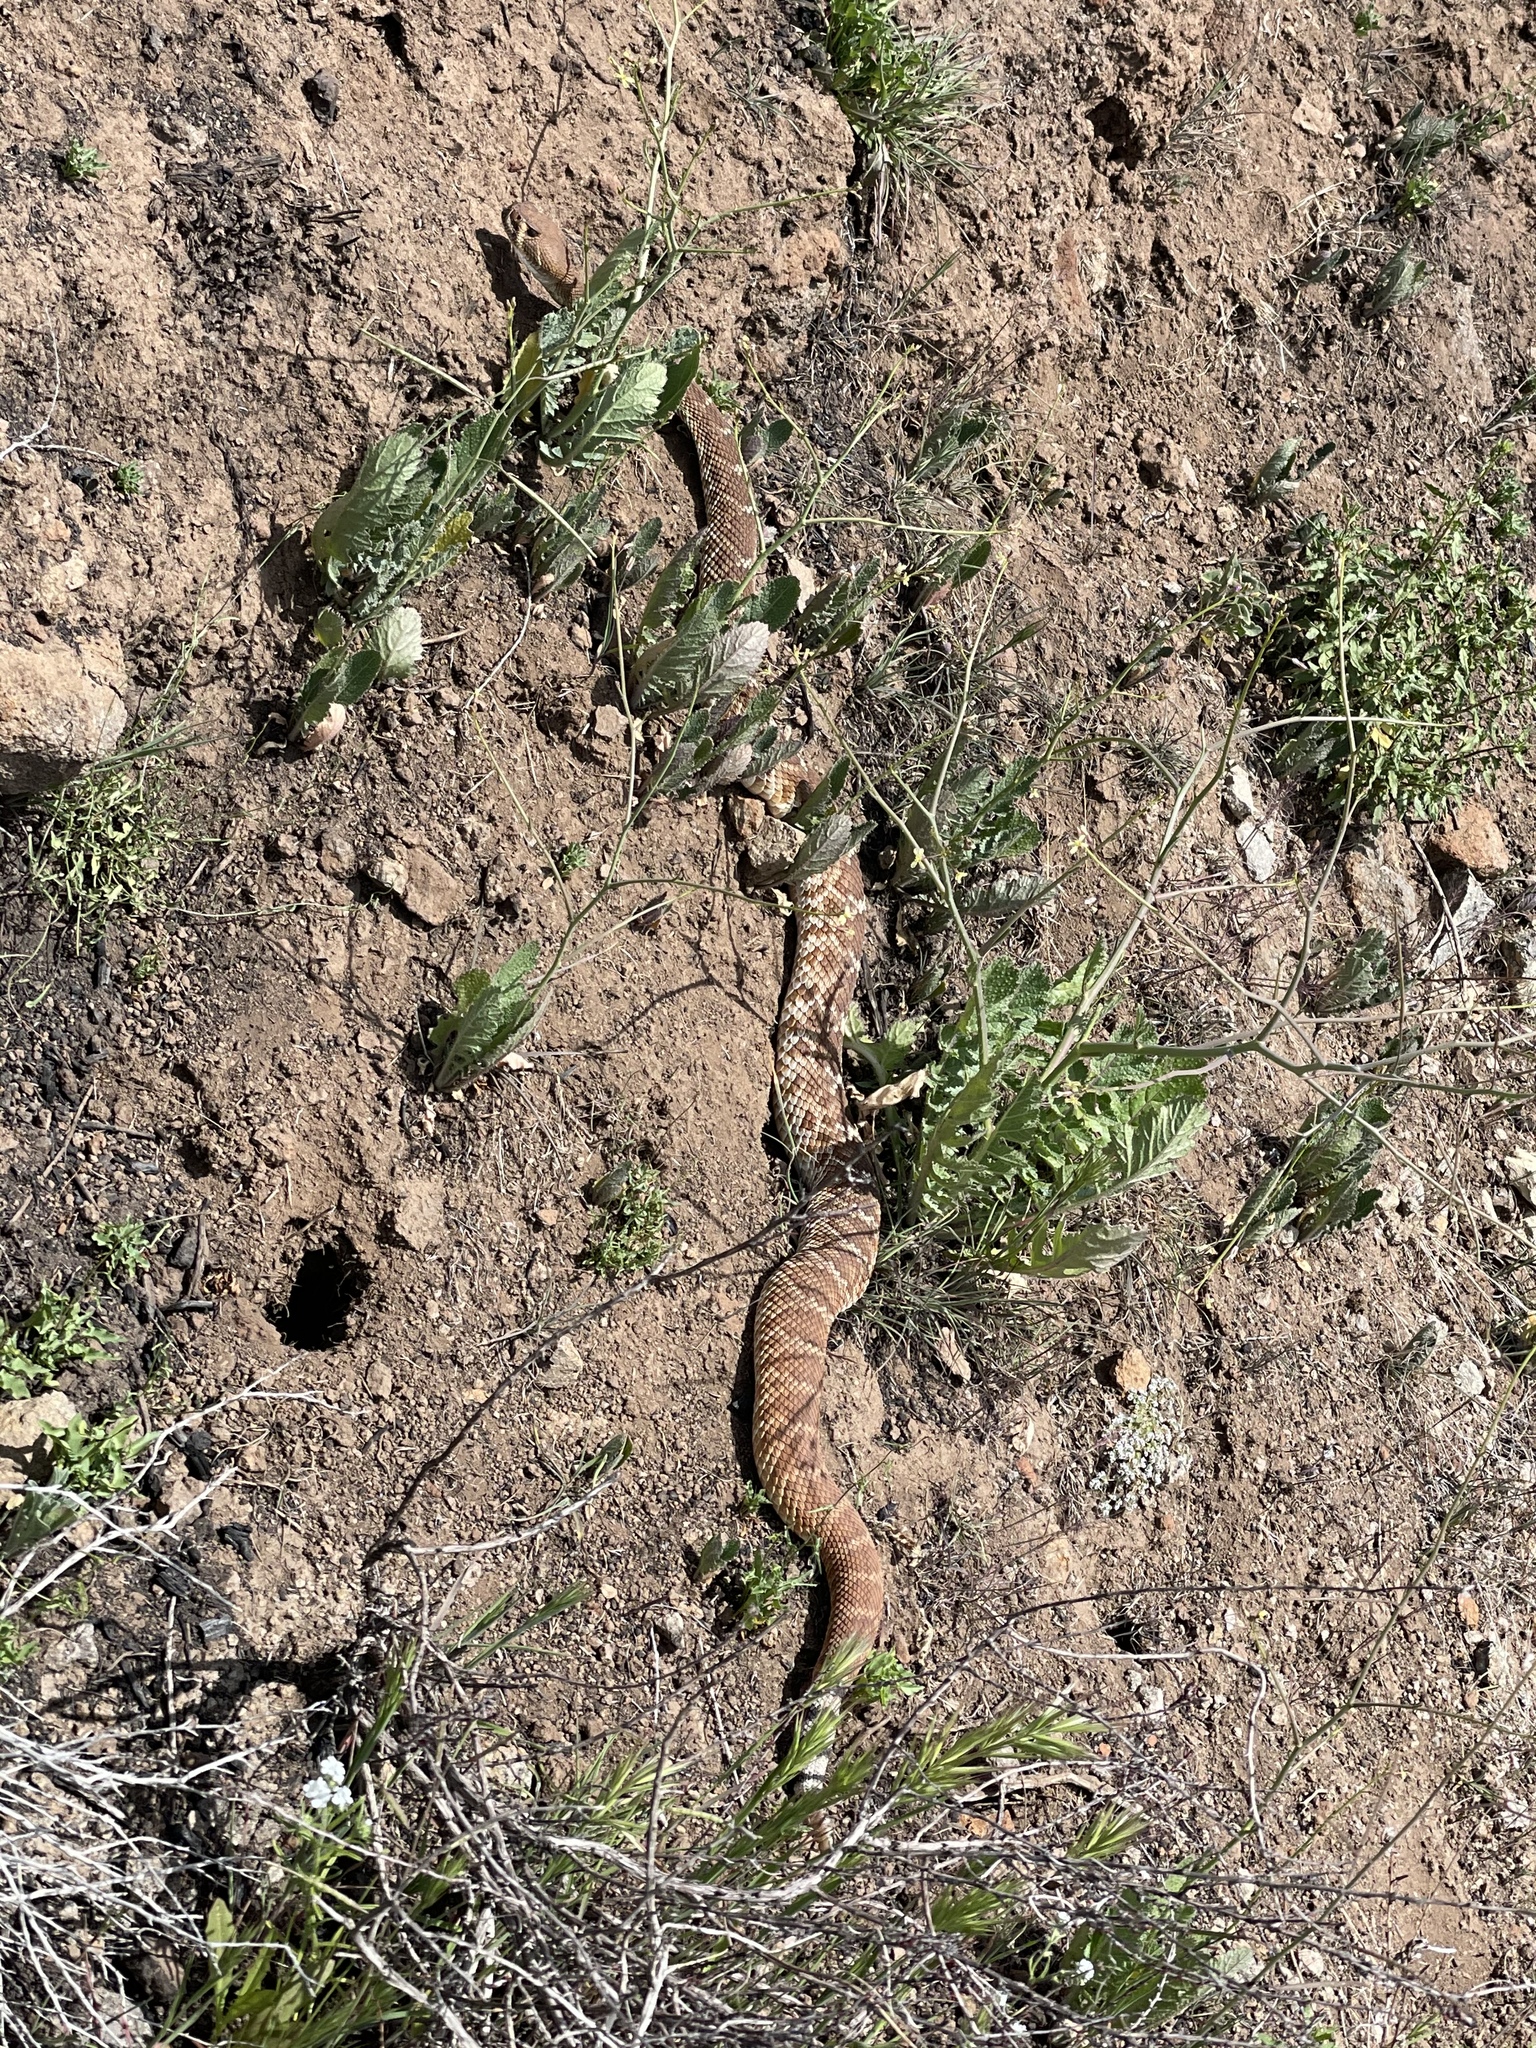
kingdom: Animalia
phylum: Chordata
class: Squamata
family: Viperidae
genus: Crotalus
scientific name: Crotalus ruber
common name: Red diamond rattlesnake
